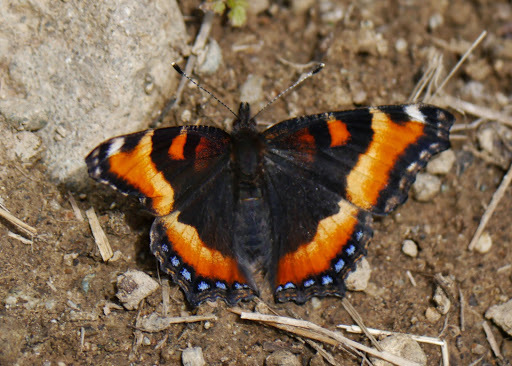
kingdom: Animalia
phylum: Arthropoda
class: Insecta
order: Lepidoptera
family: Nymphalidae
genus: Aglais
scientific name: Aglais milberti
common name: Milbert's tortoiseshell
